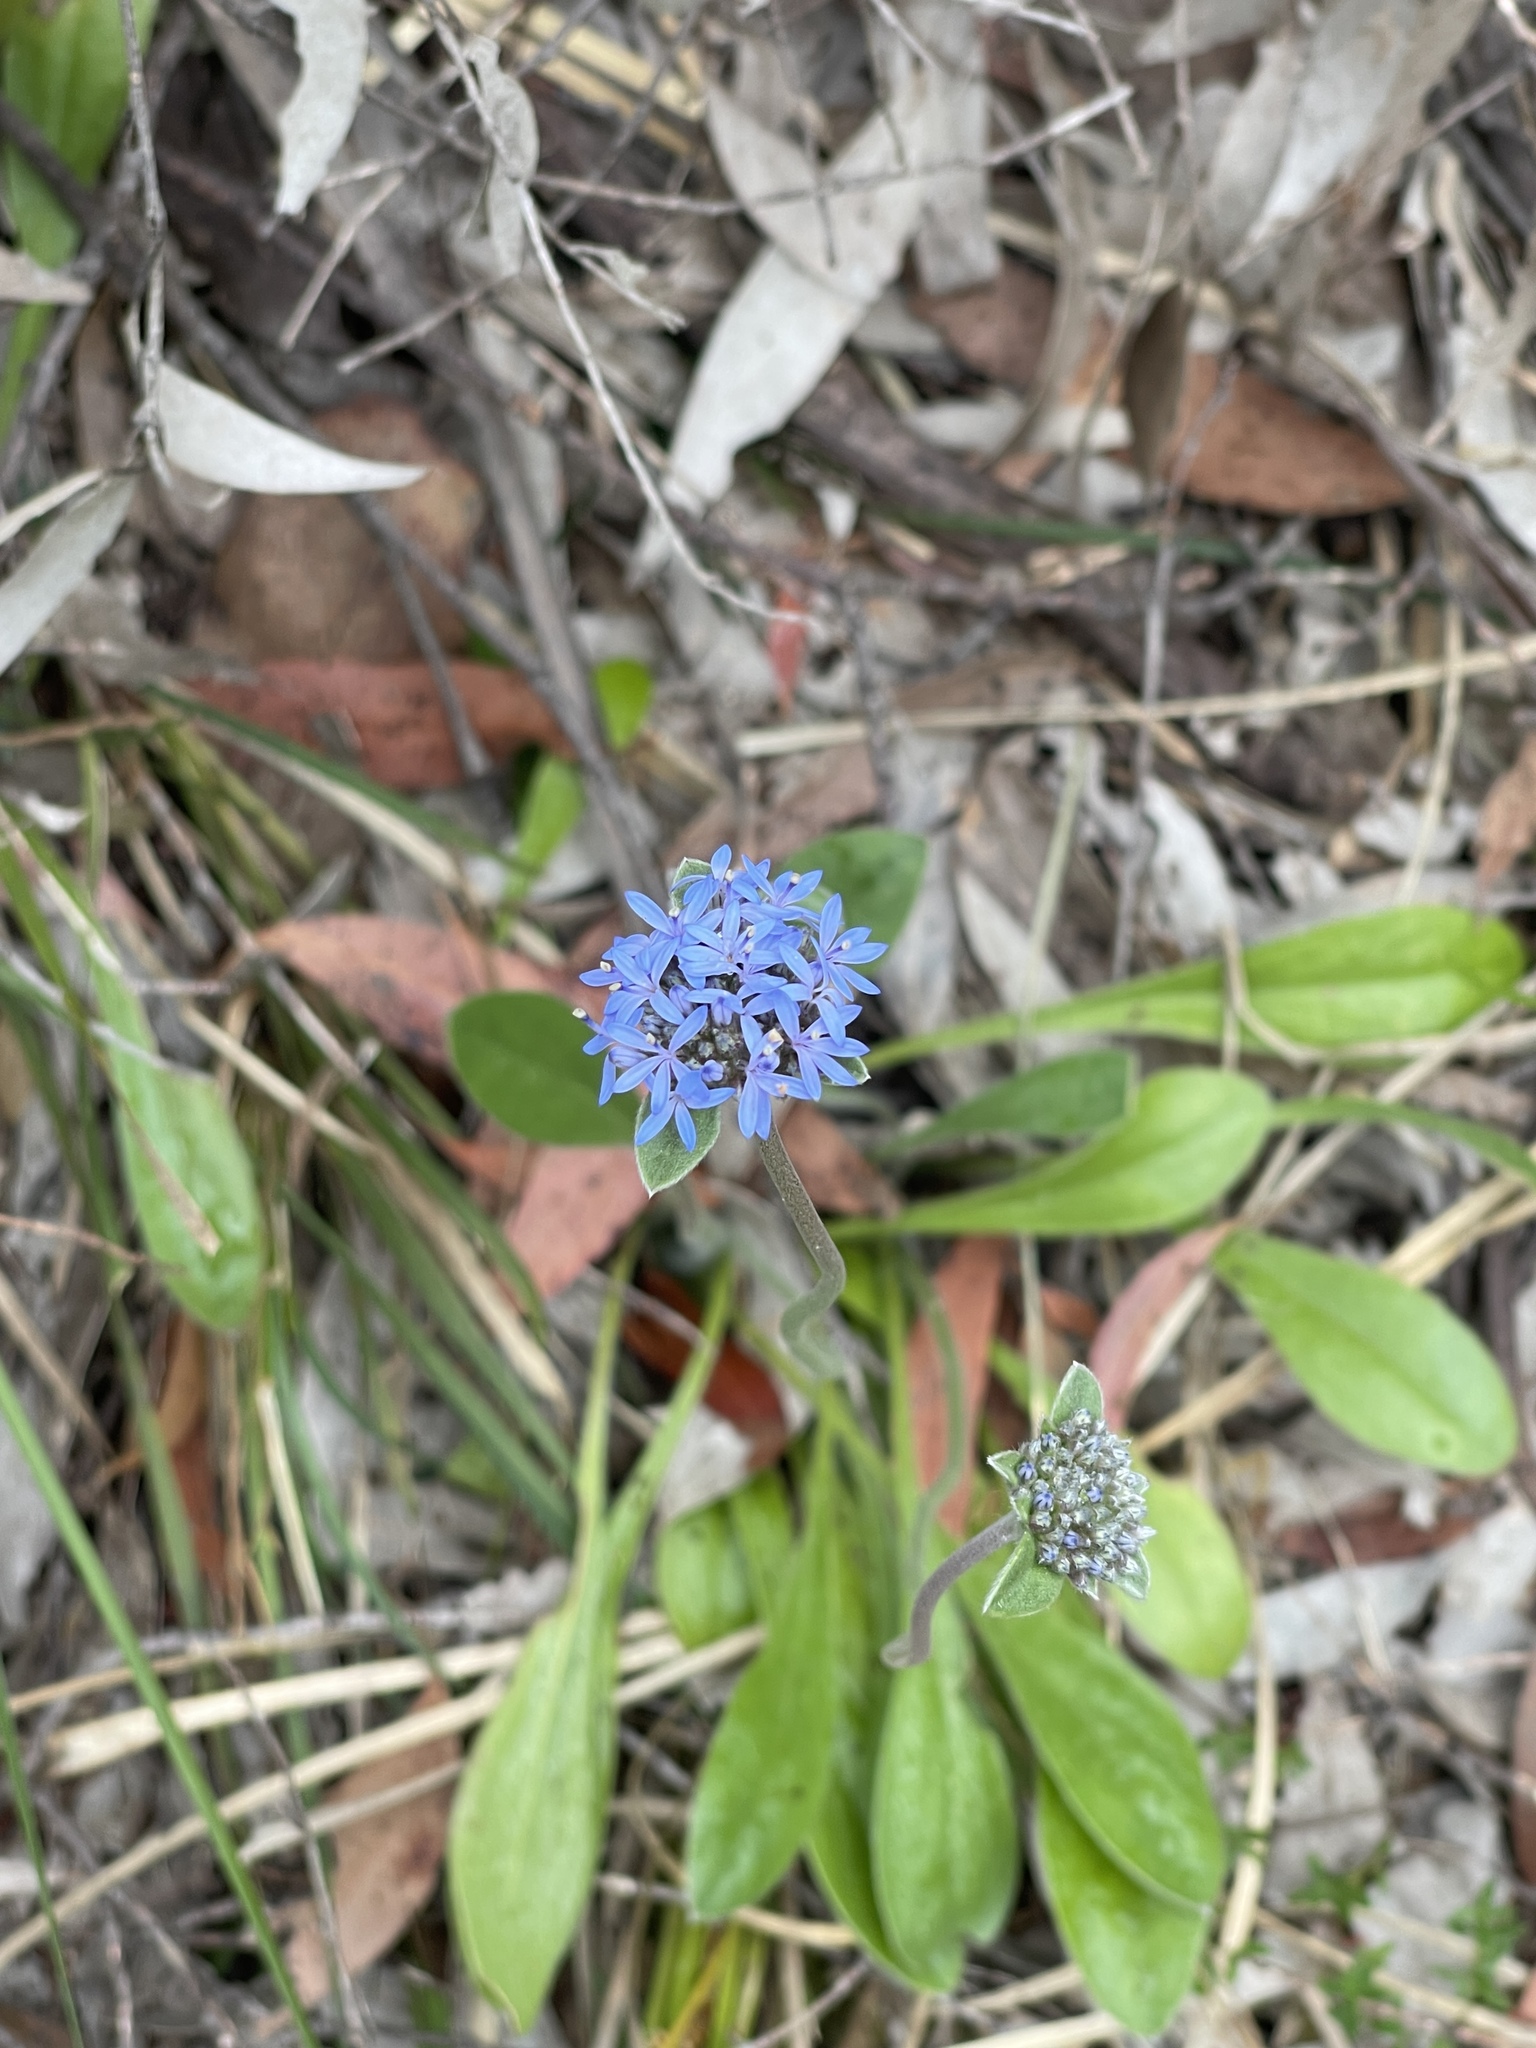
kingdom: Plantae
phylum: Tracheophyta
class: Magnoliopsida
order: Asterales
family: Goodeniaceae
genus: Brunonia
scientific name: Brunonia australis
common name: Blue pincushion
